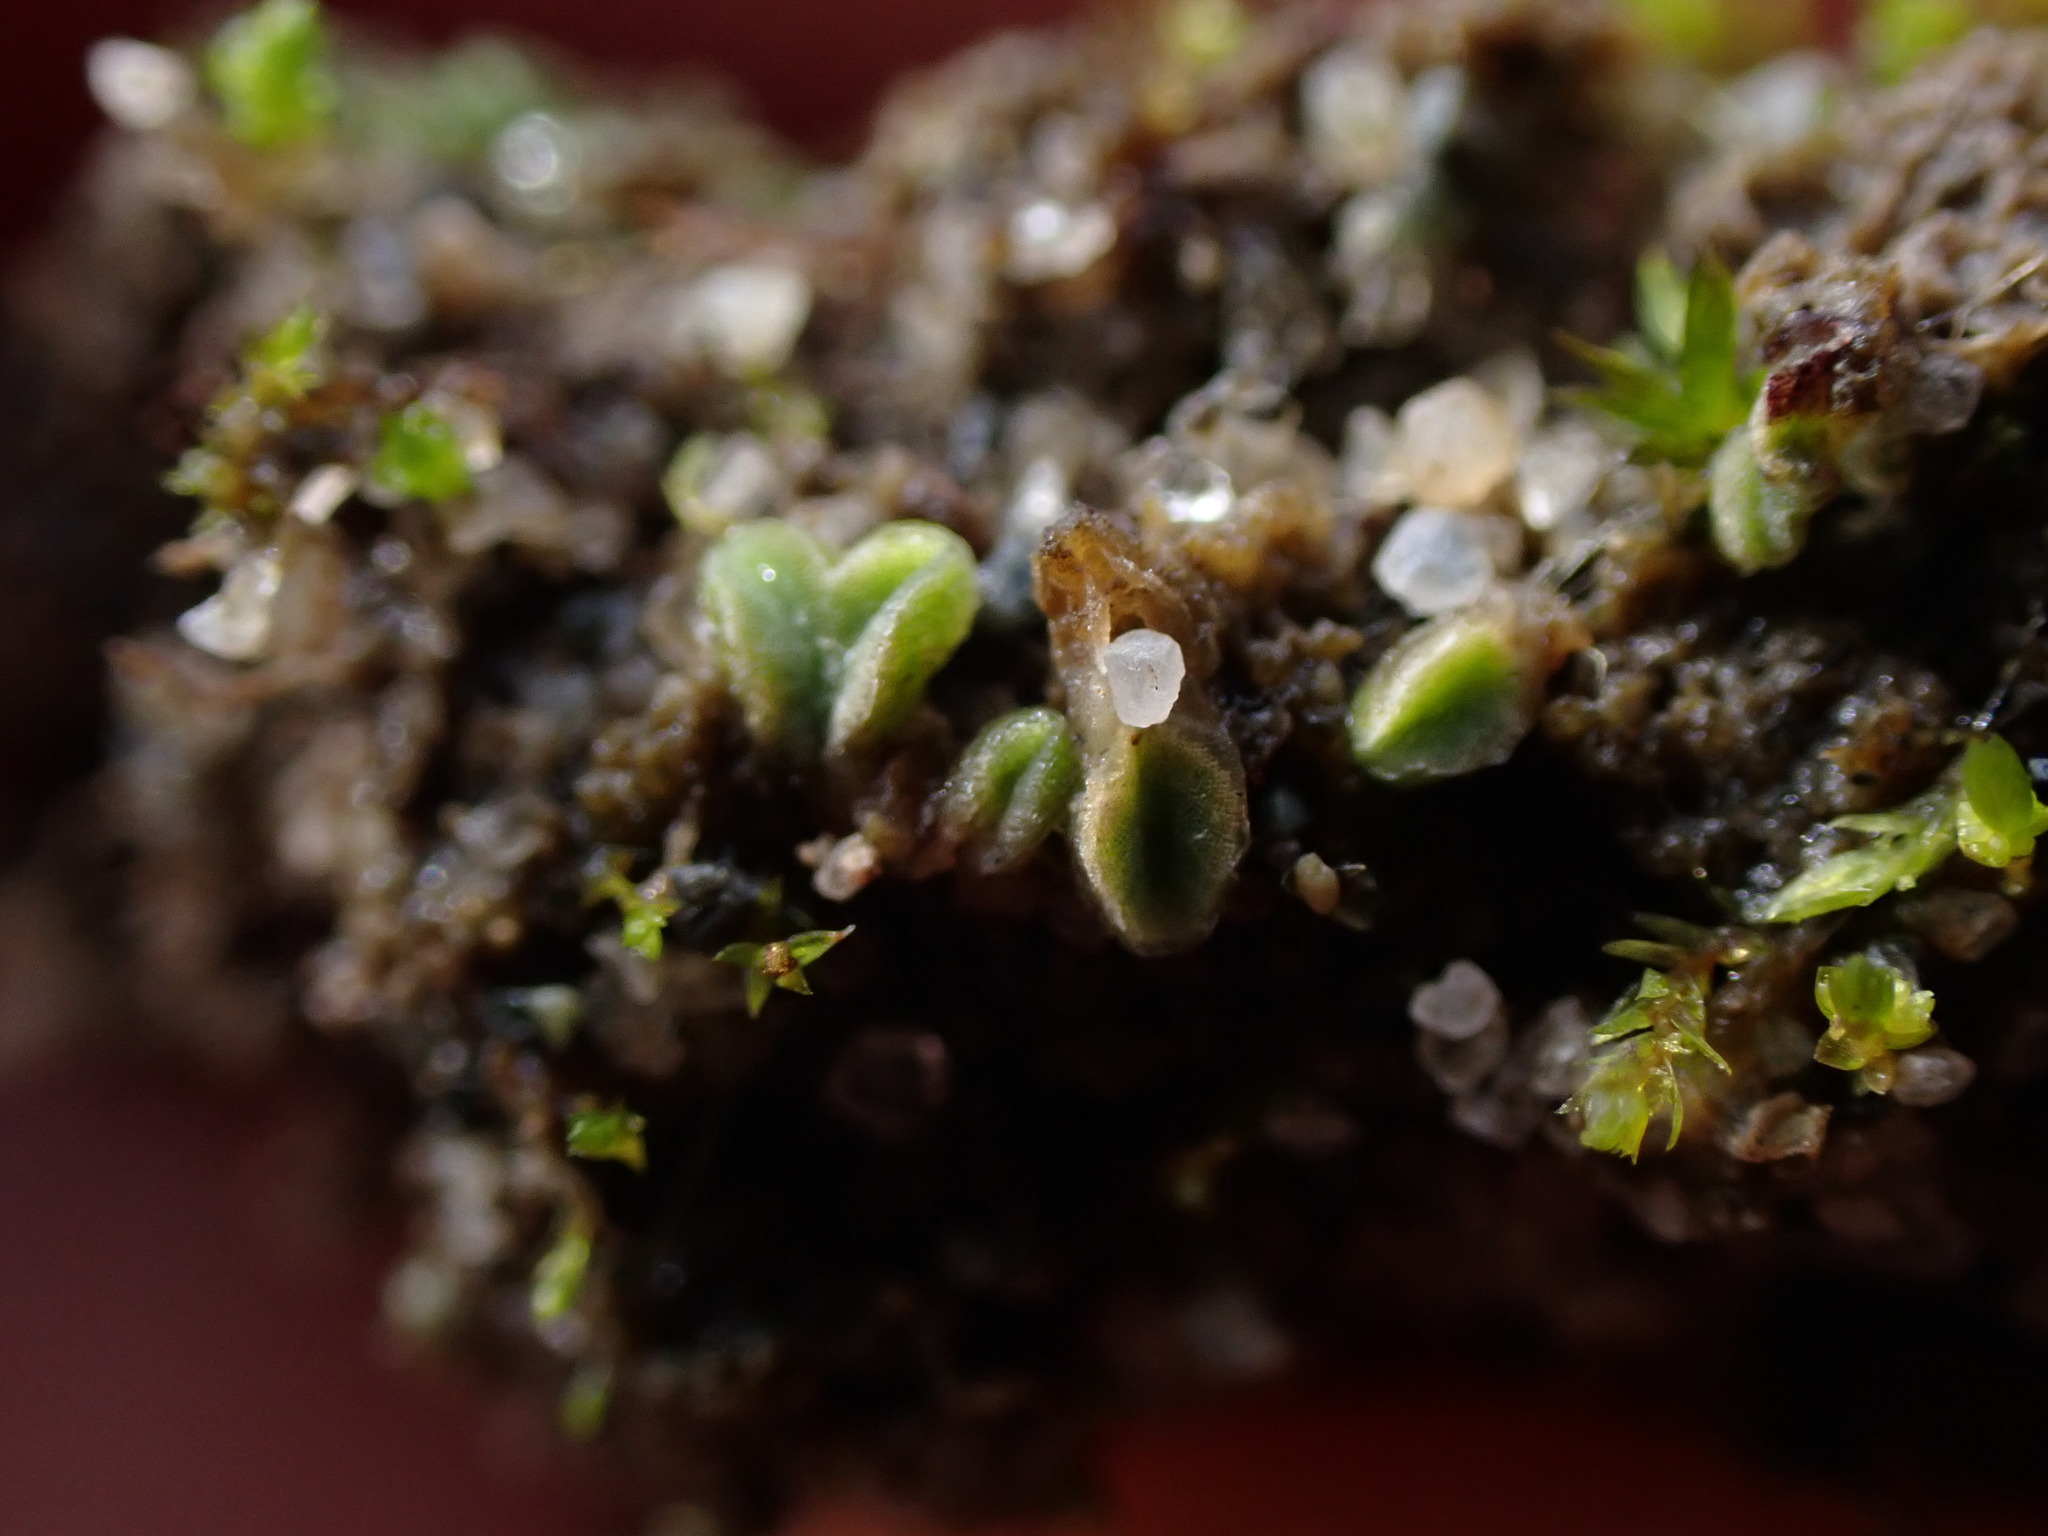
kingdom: Plantae
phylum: Marchantiophyta
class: Marchantiopsida
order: Marchantiales
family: Ricciaceae
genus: Riccia
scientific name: Riccia sorocarpa
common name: Common crystalwort
